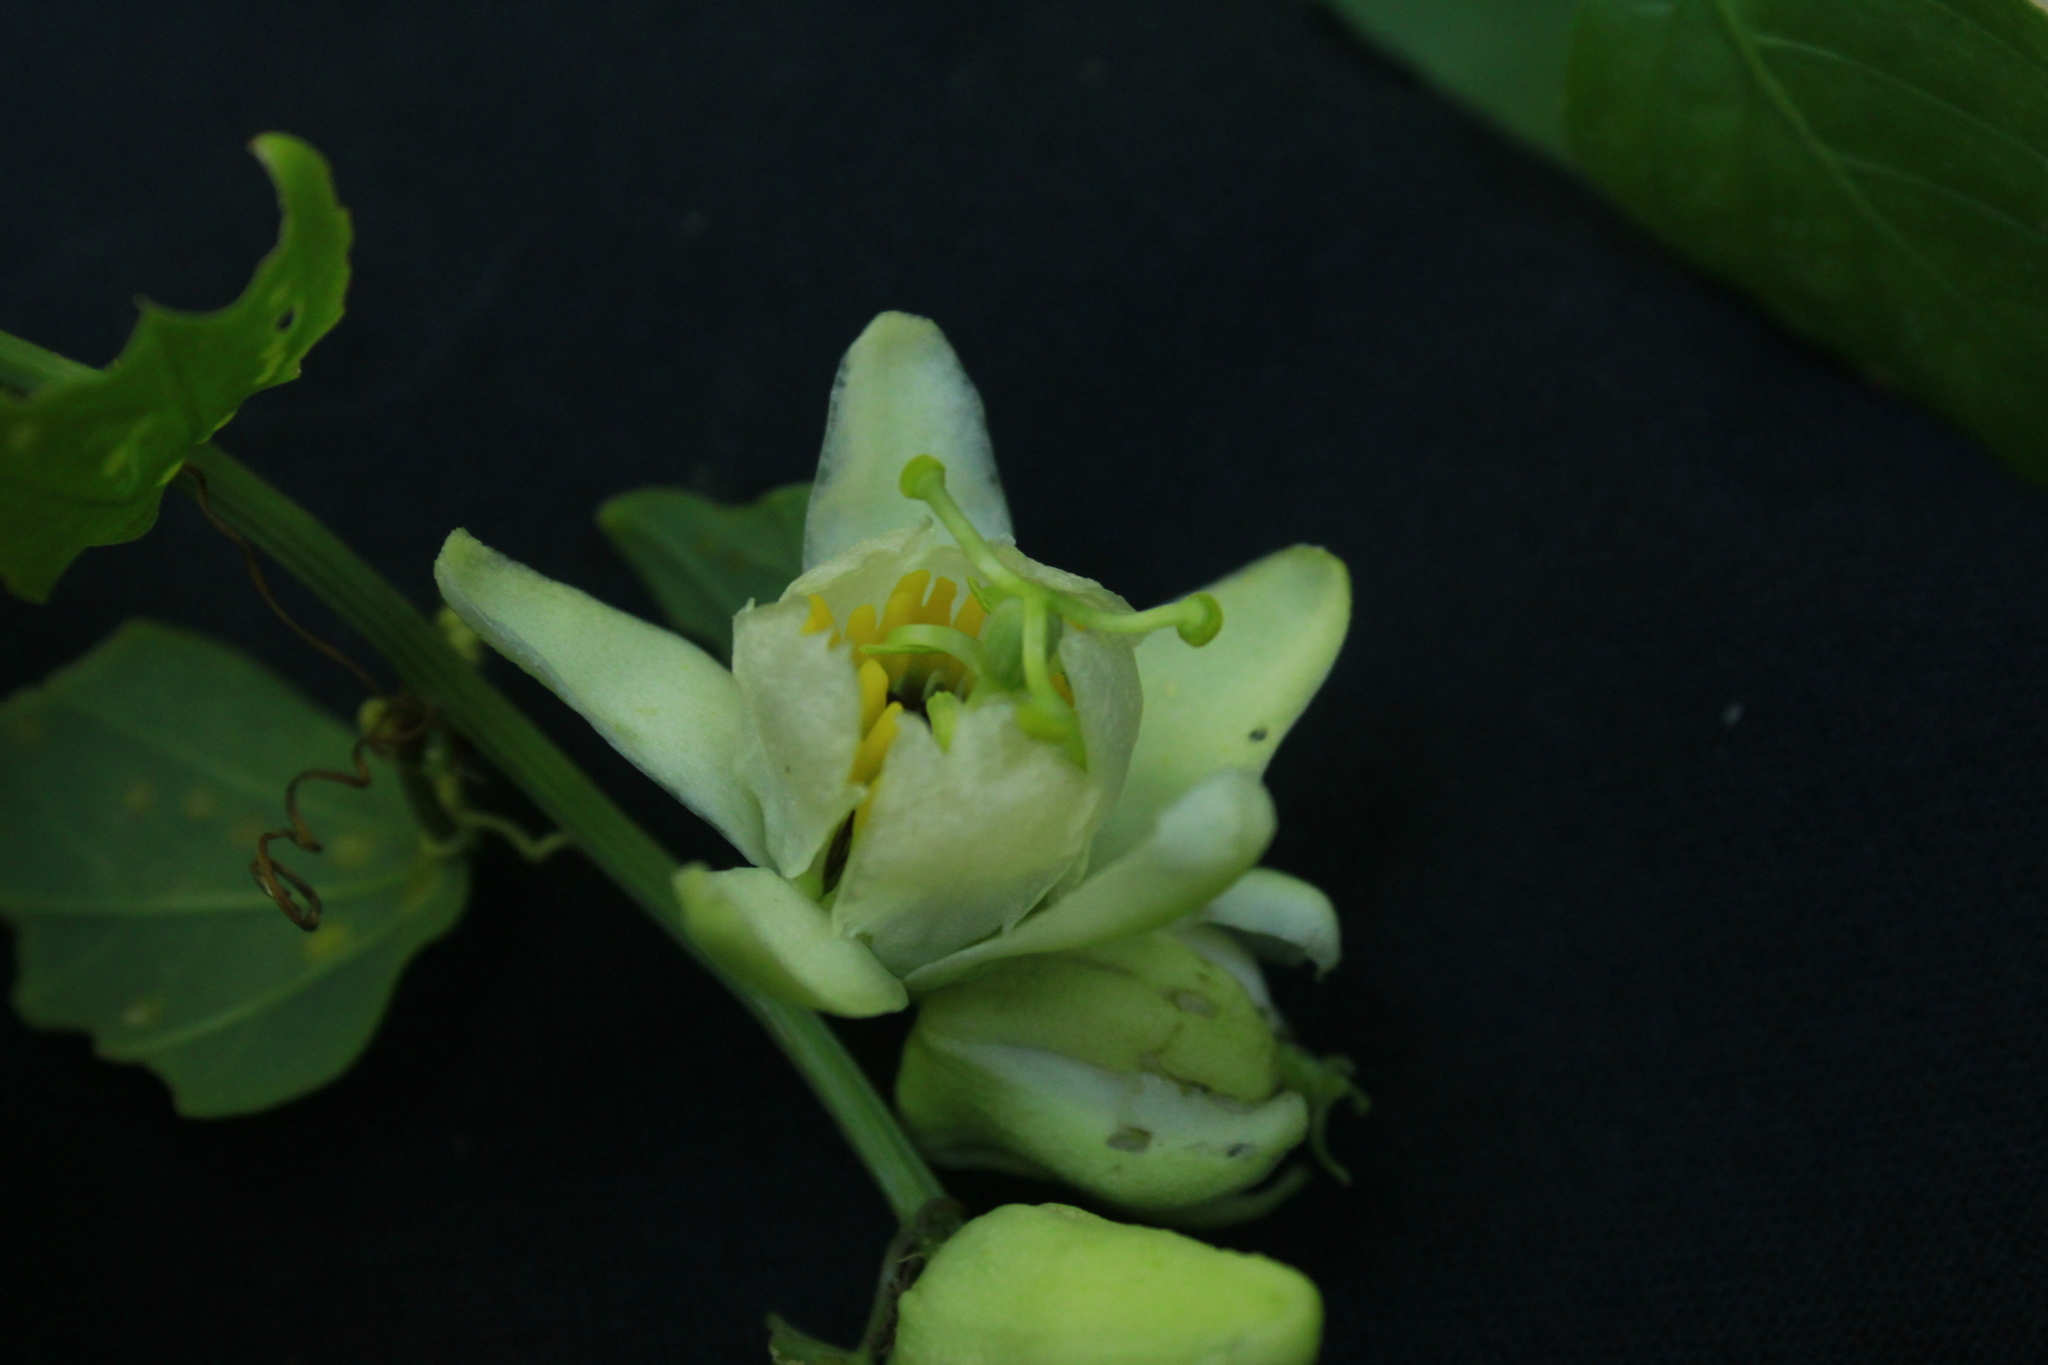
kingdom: Plantae
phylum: Tracheophyta
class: Magnoliopsida
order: Malpighiales
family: Passifloraceae
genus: Passiflora
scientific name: Passiflora biflora
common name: Twoflower passionflower
